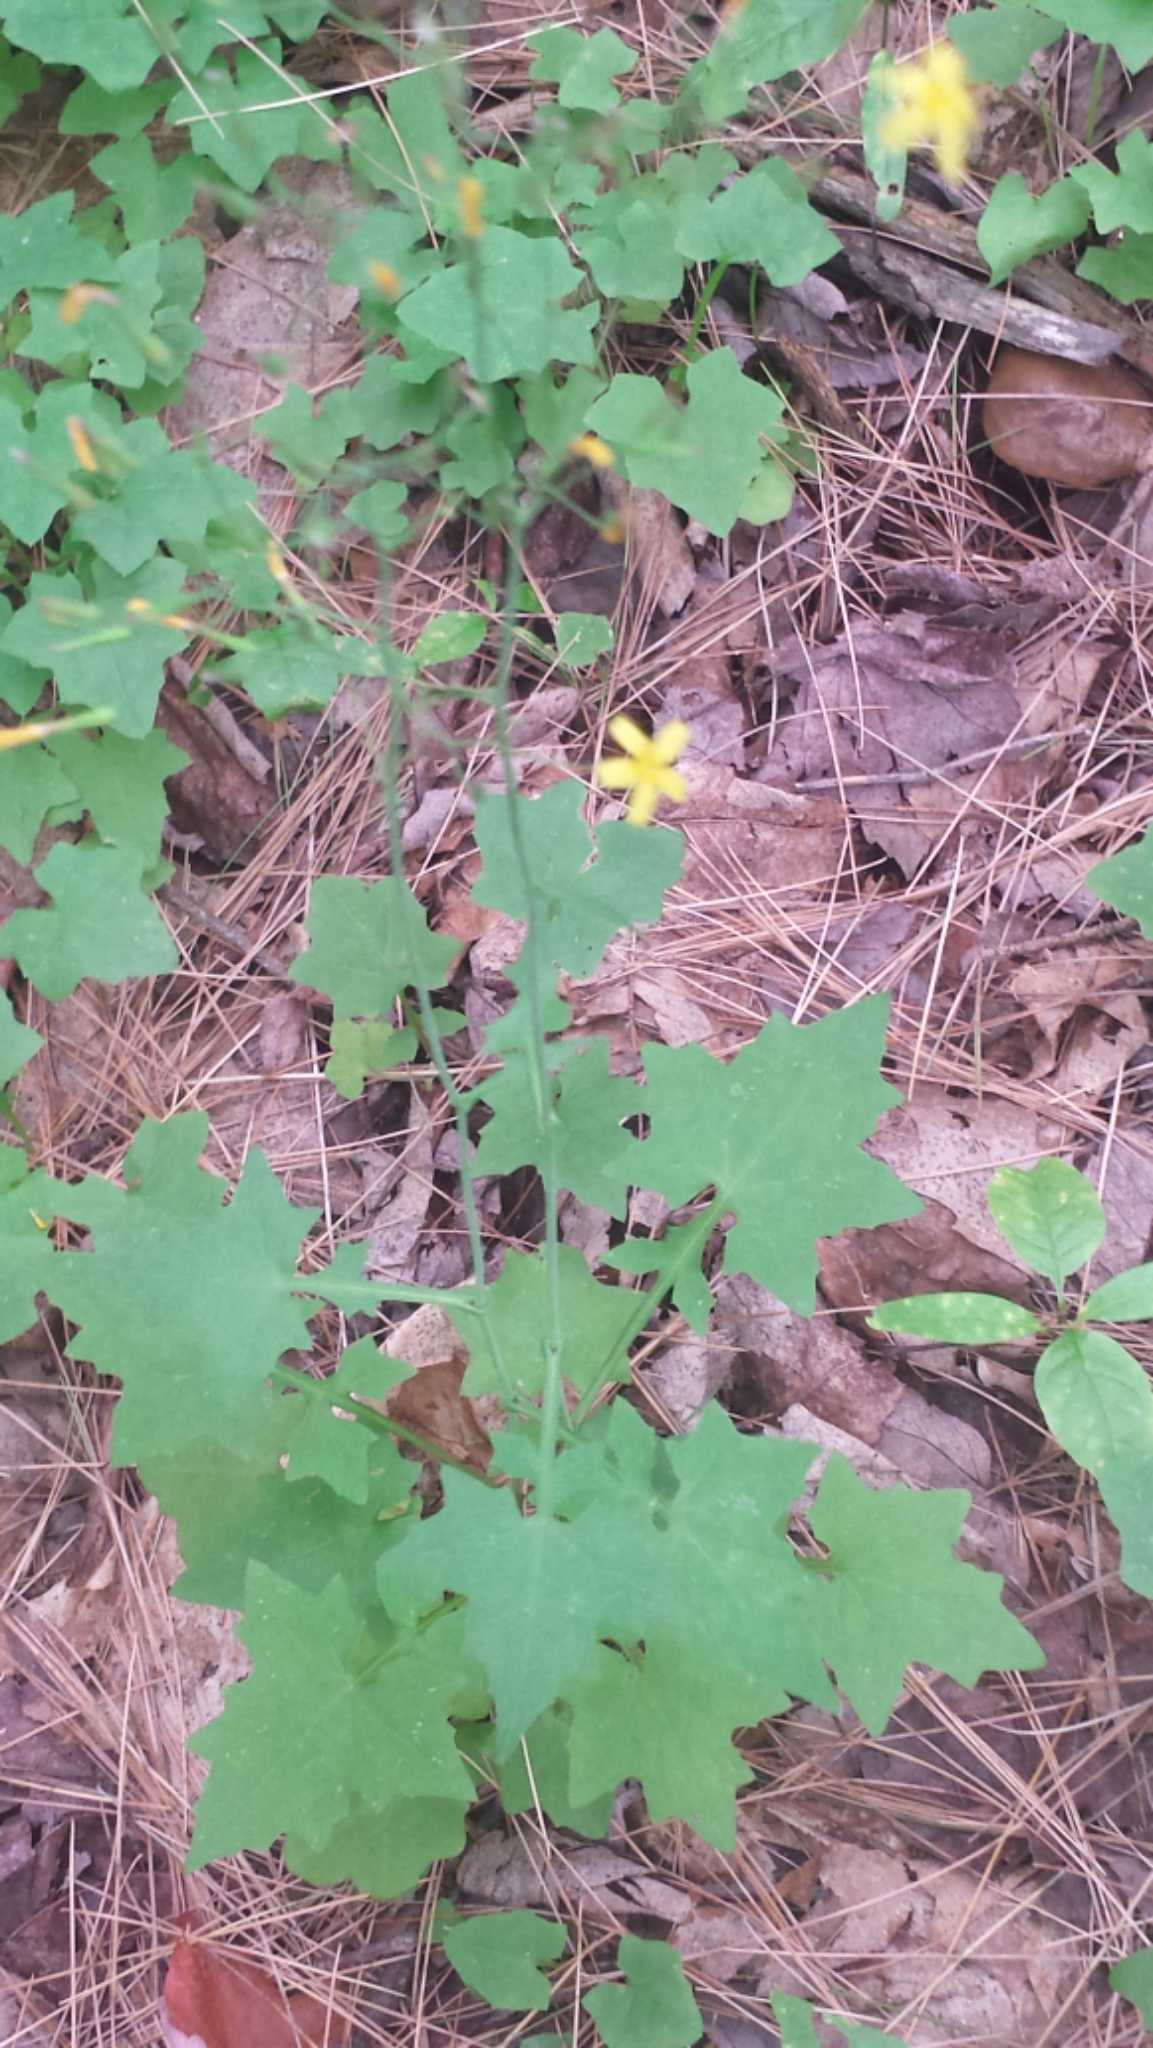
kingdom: Plantae
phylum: Tracheophyta
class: Magnoliopsida
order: Asterales
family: Asteraceae
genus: Mycelis
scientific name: Mycelis muralis
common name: Wall lettuce
